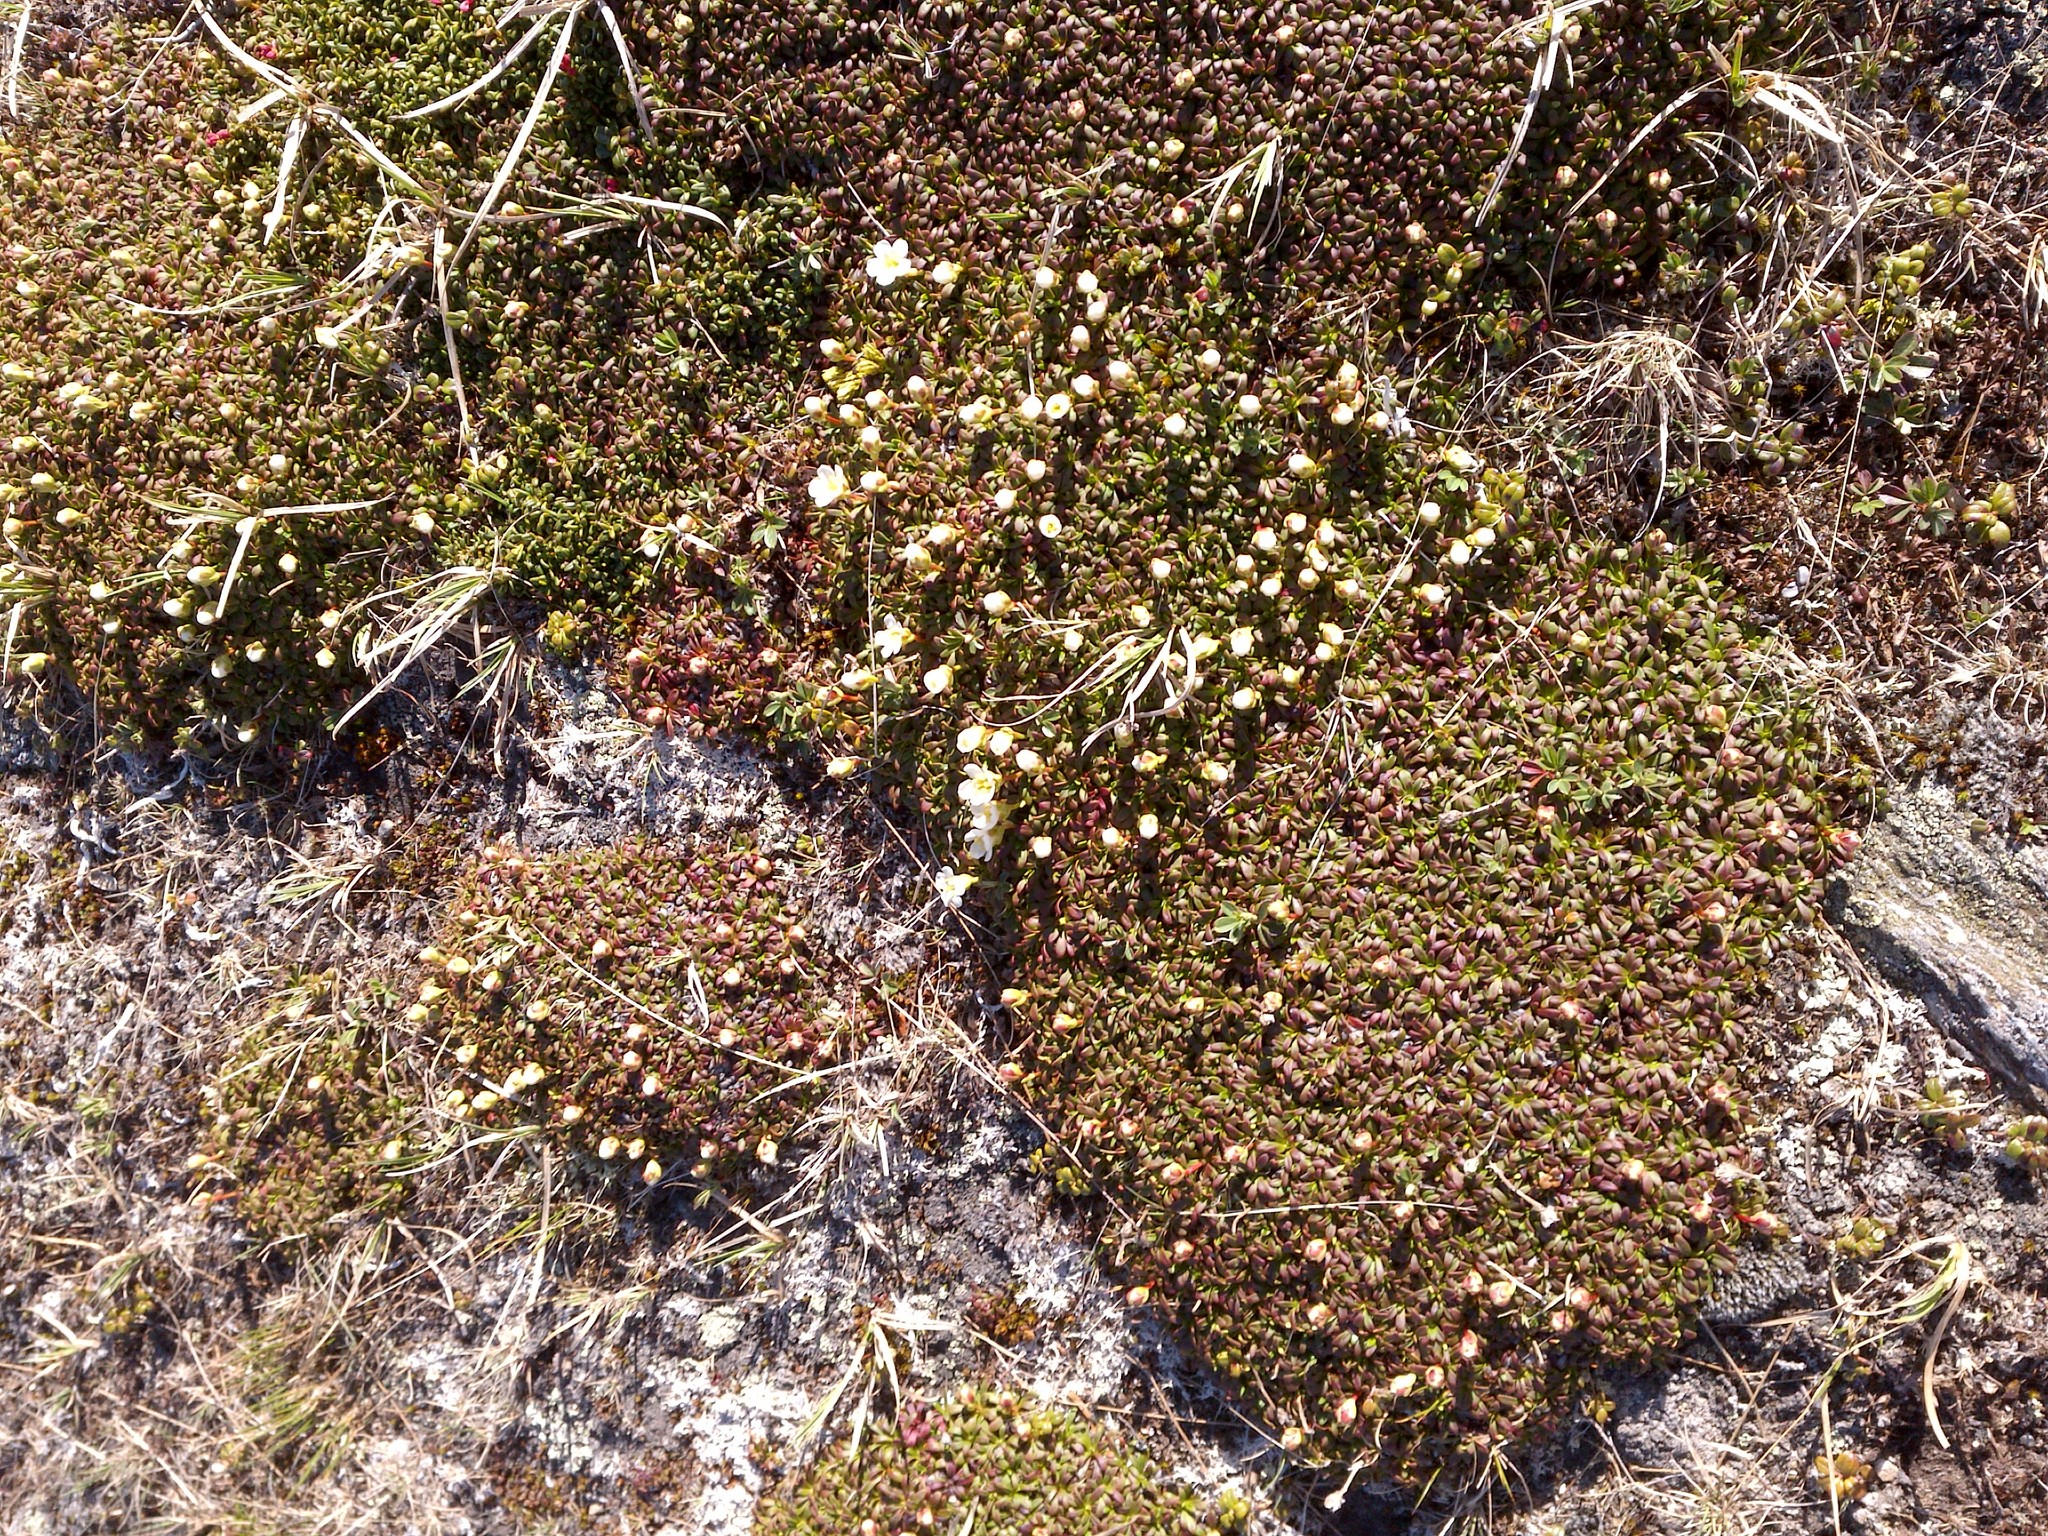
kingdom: Plantae
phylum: Tracheophyta
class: Magnoliopsida
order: Ericales
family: Diapensiaceae
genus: Diapensia
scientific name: Diapensia lapponica
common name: Diapensia
